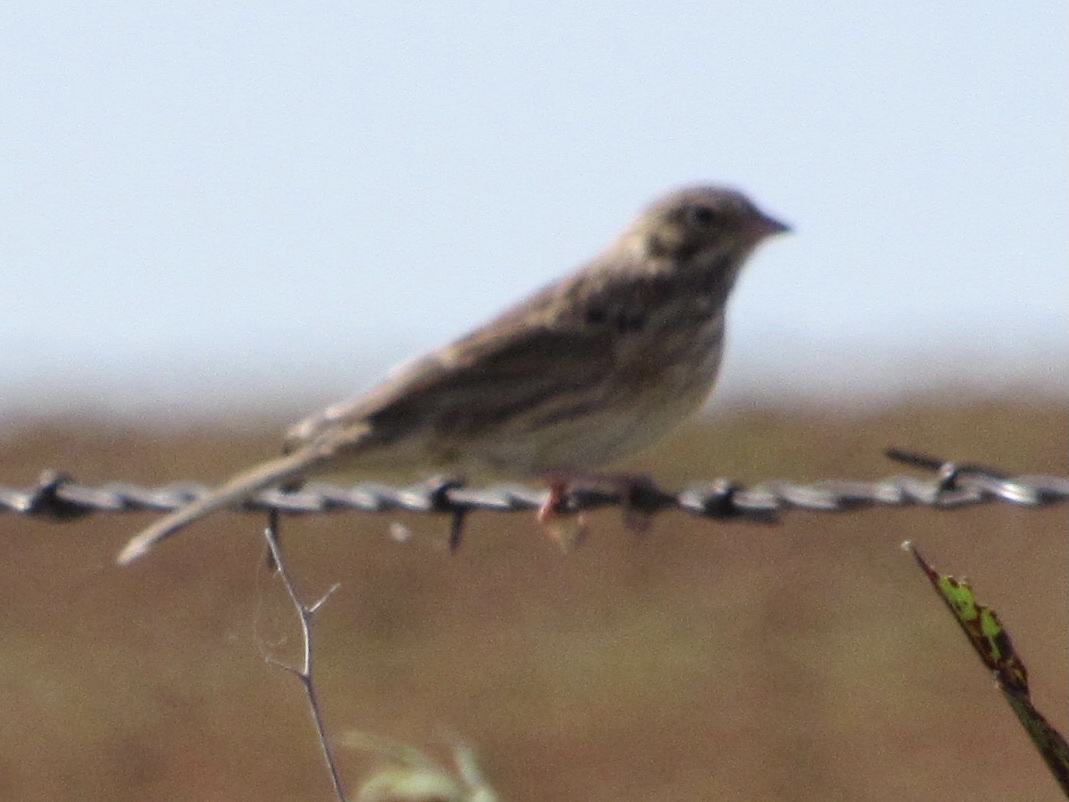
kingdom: Animalia
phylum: Chordata
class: Aves
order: Passeriformes
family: Passerellidae
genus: Pooecetes
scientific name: Pooecetes gramineus
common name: Vesper sparrow
